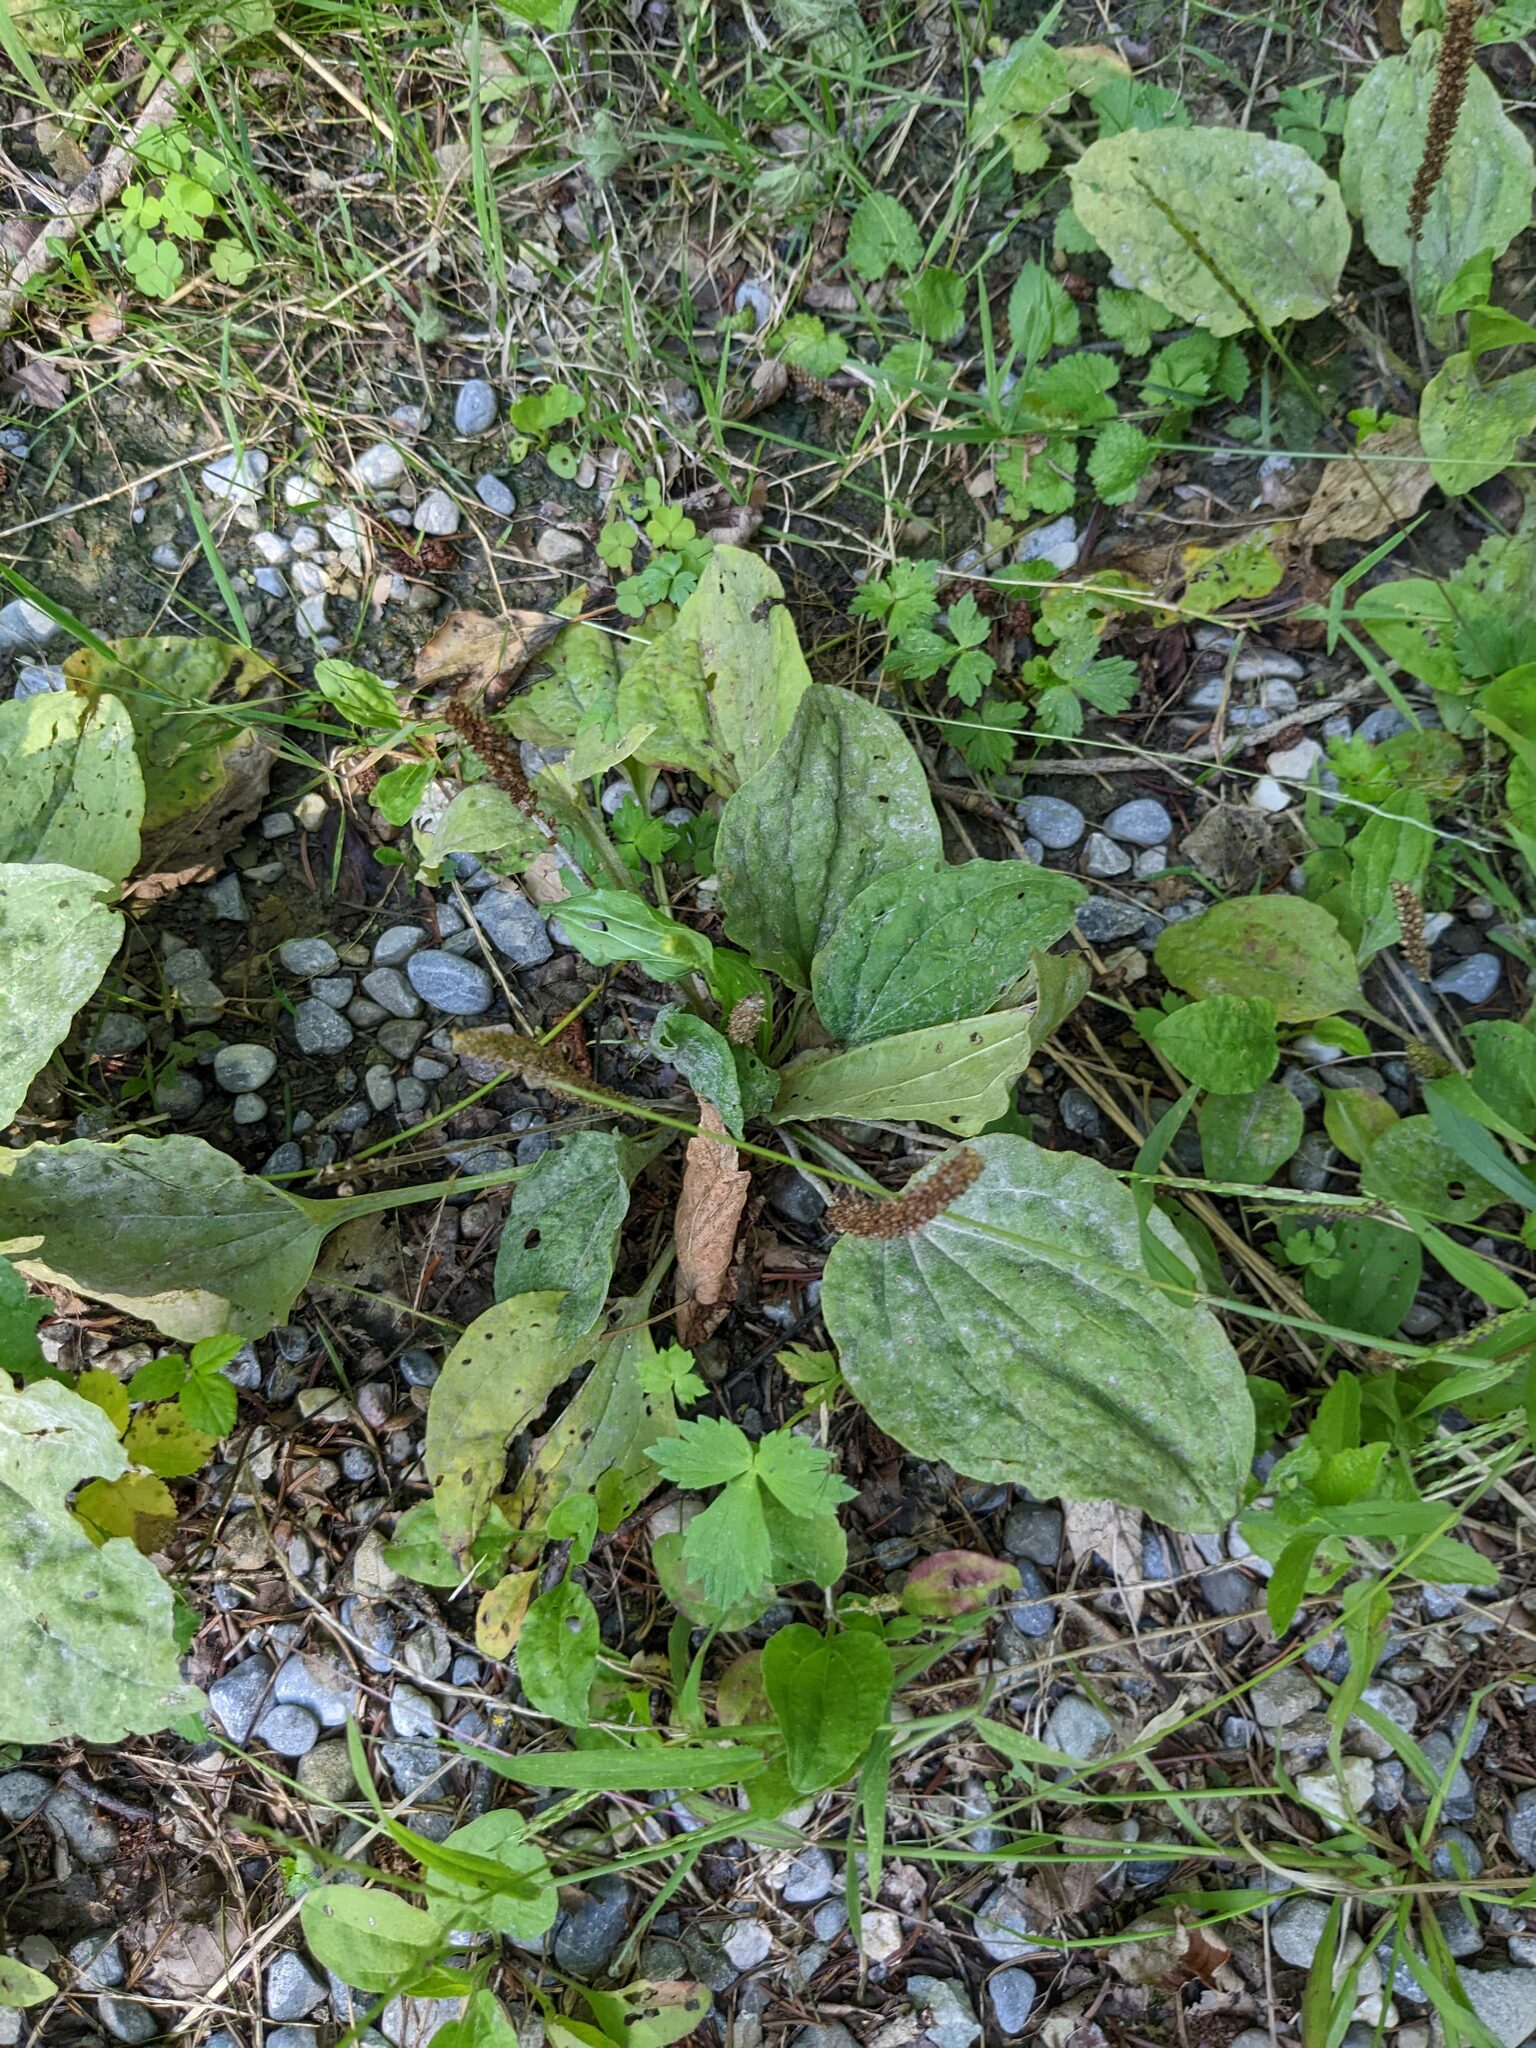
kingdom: Plantae
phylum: Tracheophyta
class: Magnoliopsida
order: Lamiales
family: Plantaginaceae
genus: Plantago
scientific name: Plantago major
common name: Common plantain
